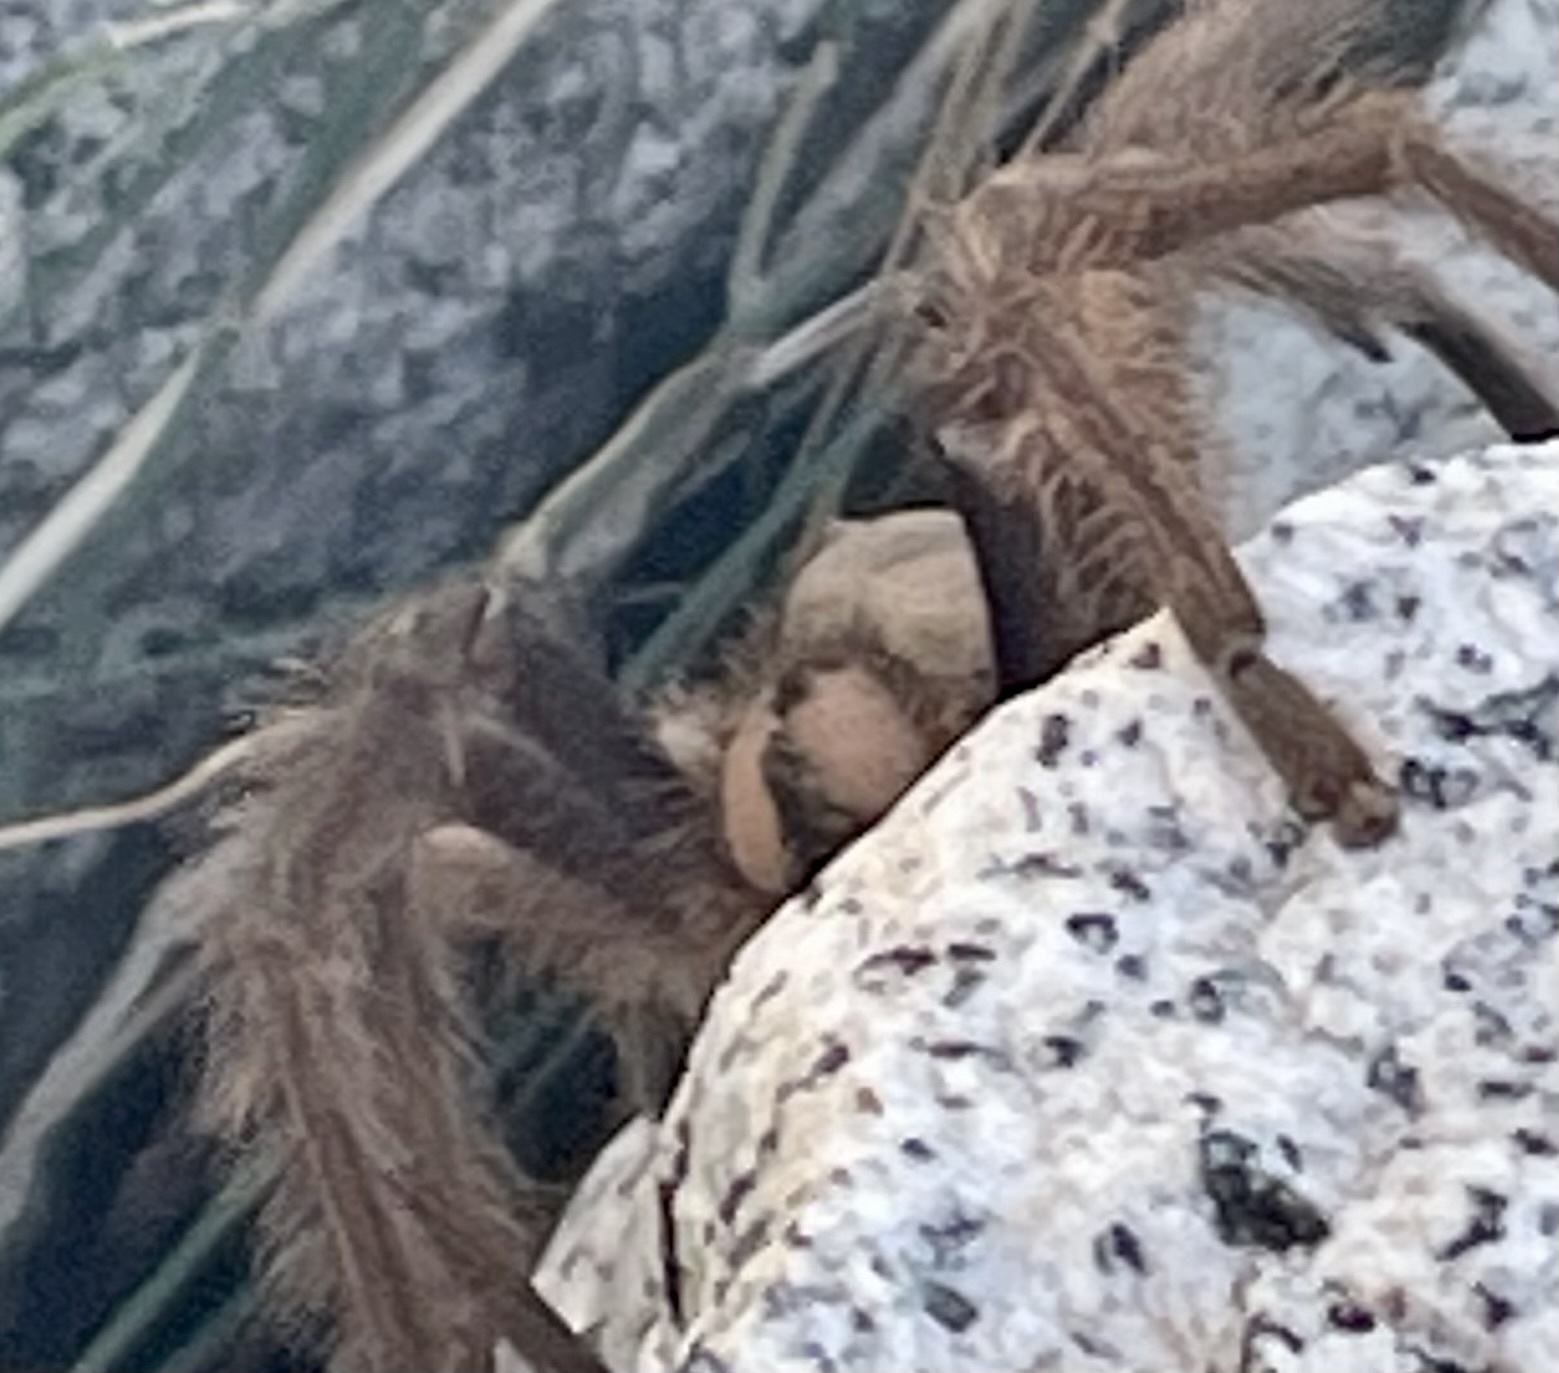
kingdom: Animalia
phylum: Arthropoda
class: Arachnida
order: Araneae
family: Theraphosidae
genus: Aphonopelma
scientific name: Aphonopelma eutylenum
